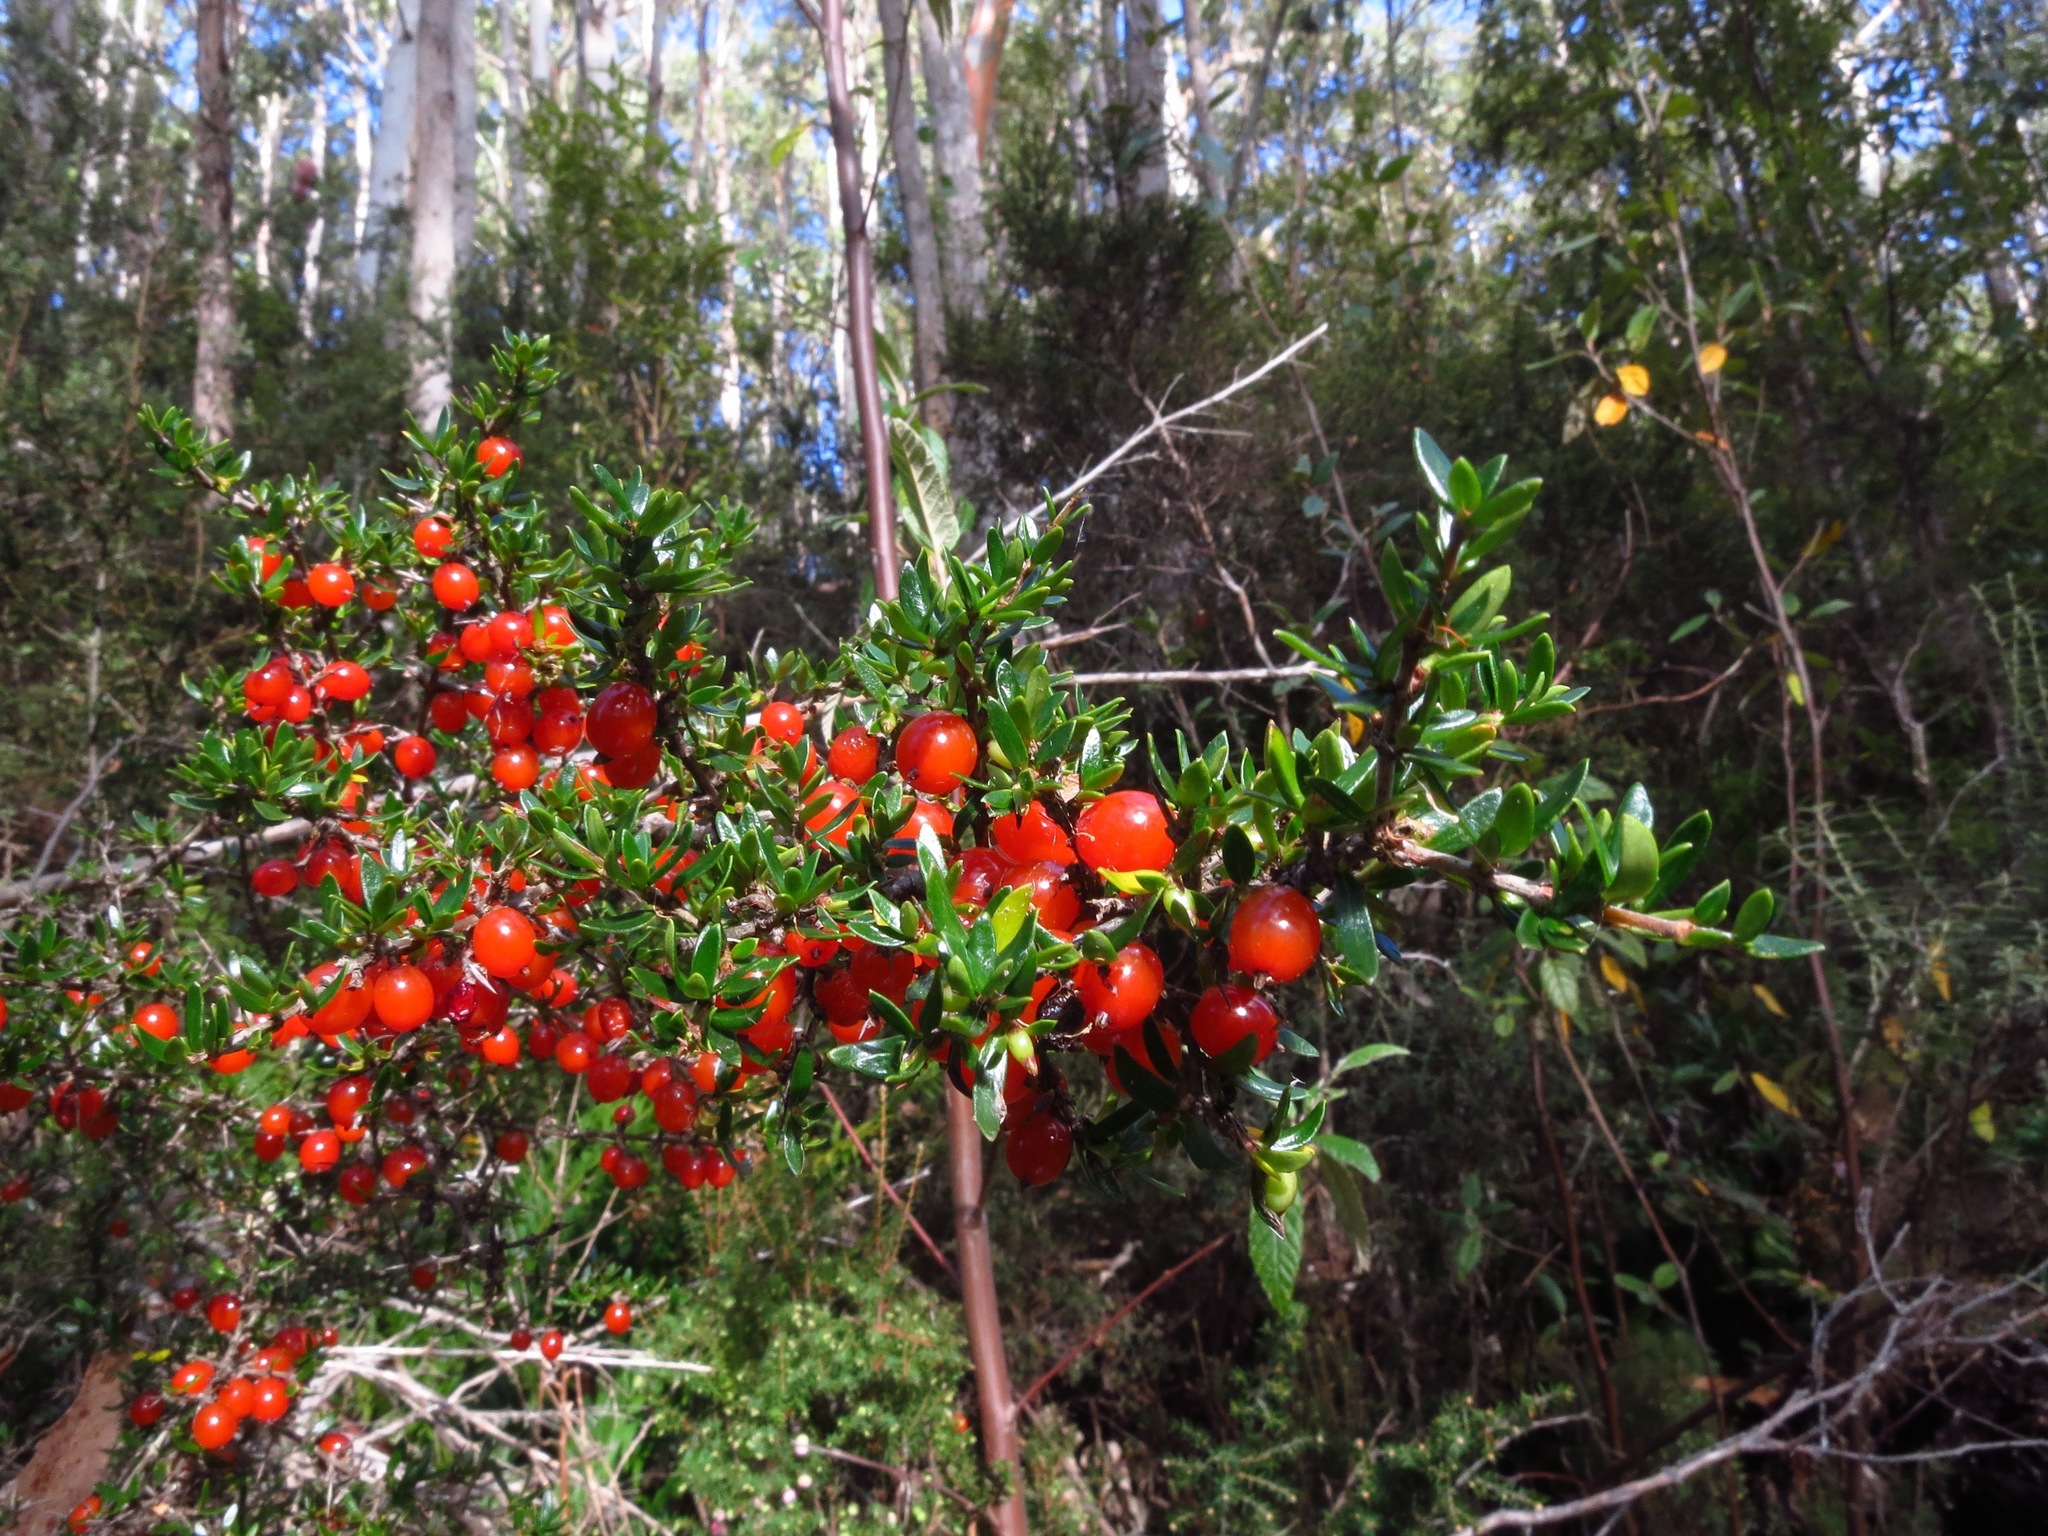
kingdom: Plantae
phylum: Tracheophyta
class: Magnoliopsida
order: Gentianales
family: Rubiaceae
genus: Coprosma
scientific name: Coprosma nitida
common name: Shining coprosma
